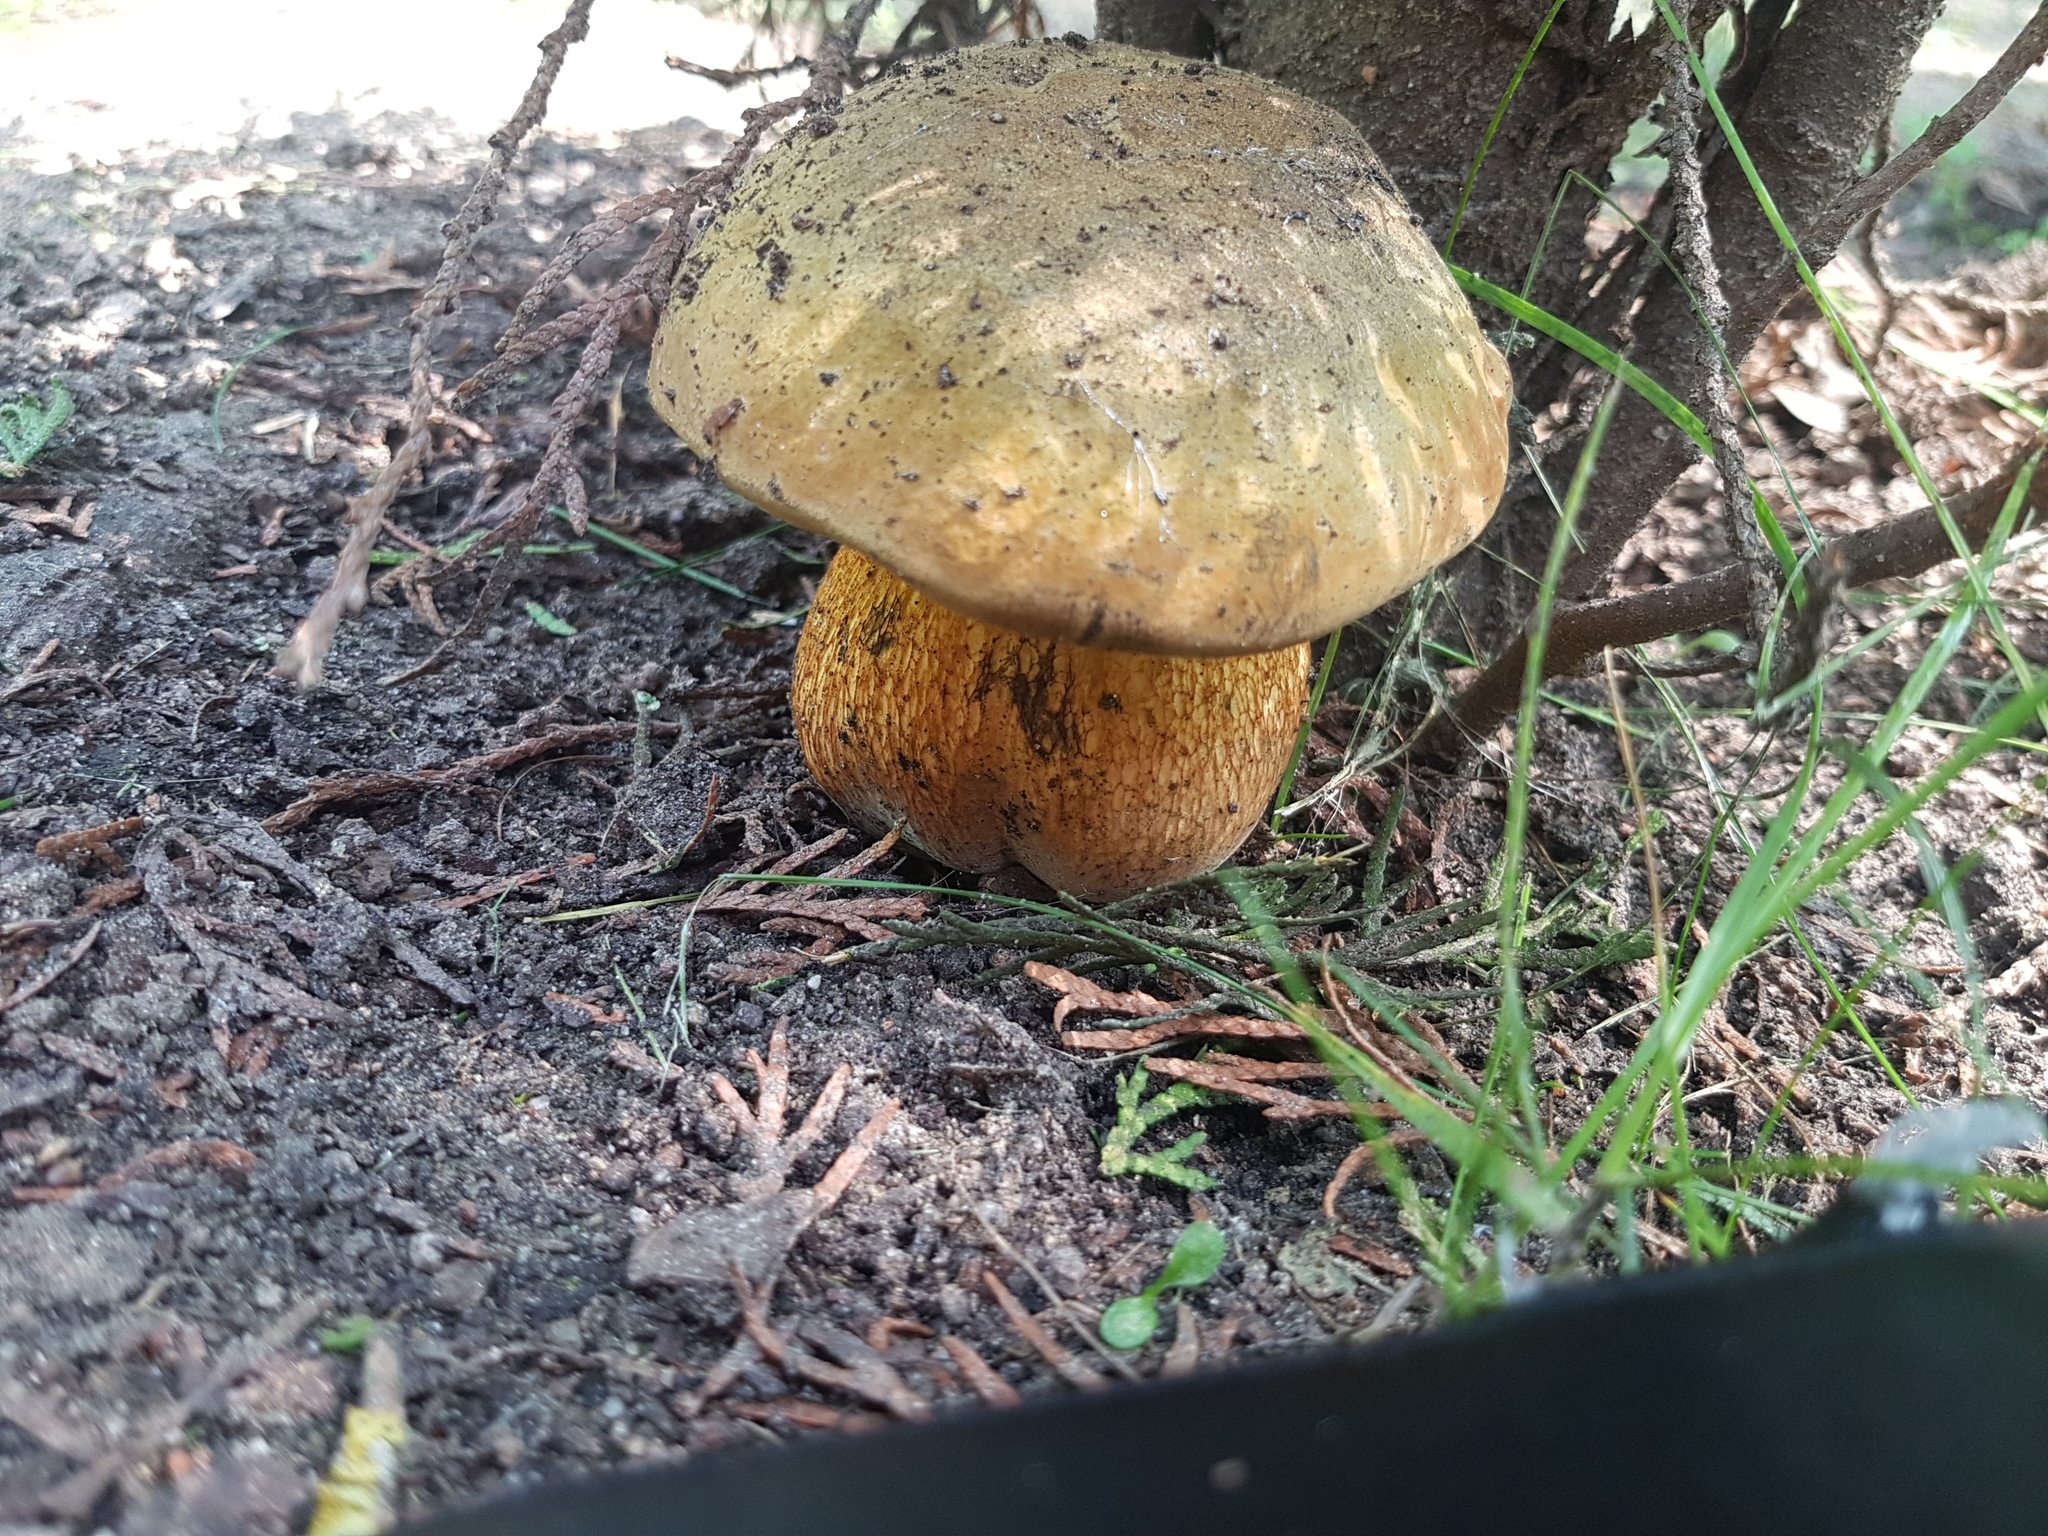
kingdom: Fungi
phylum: Basidiomycota
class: Agaricomycetes
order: Boletales
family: Boletaceae
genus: Suillellus
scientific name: Suillellus luridus
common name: Lurid bolete
